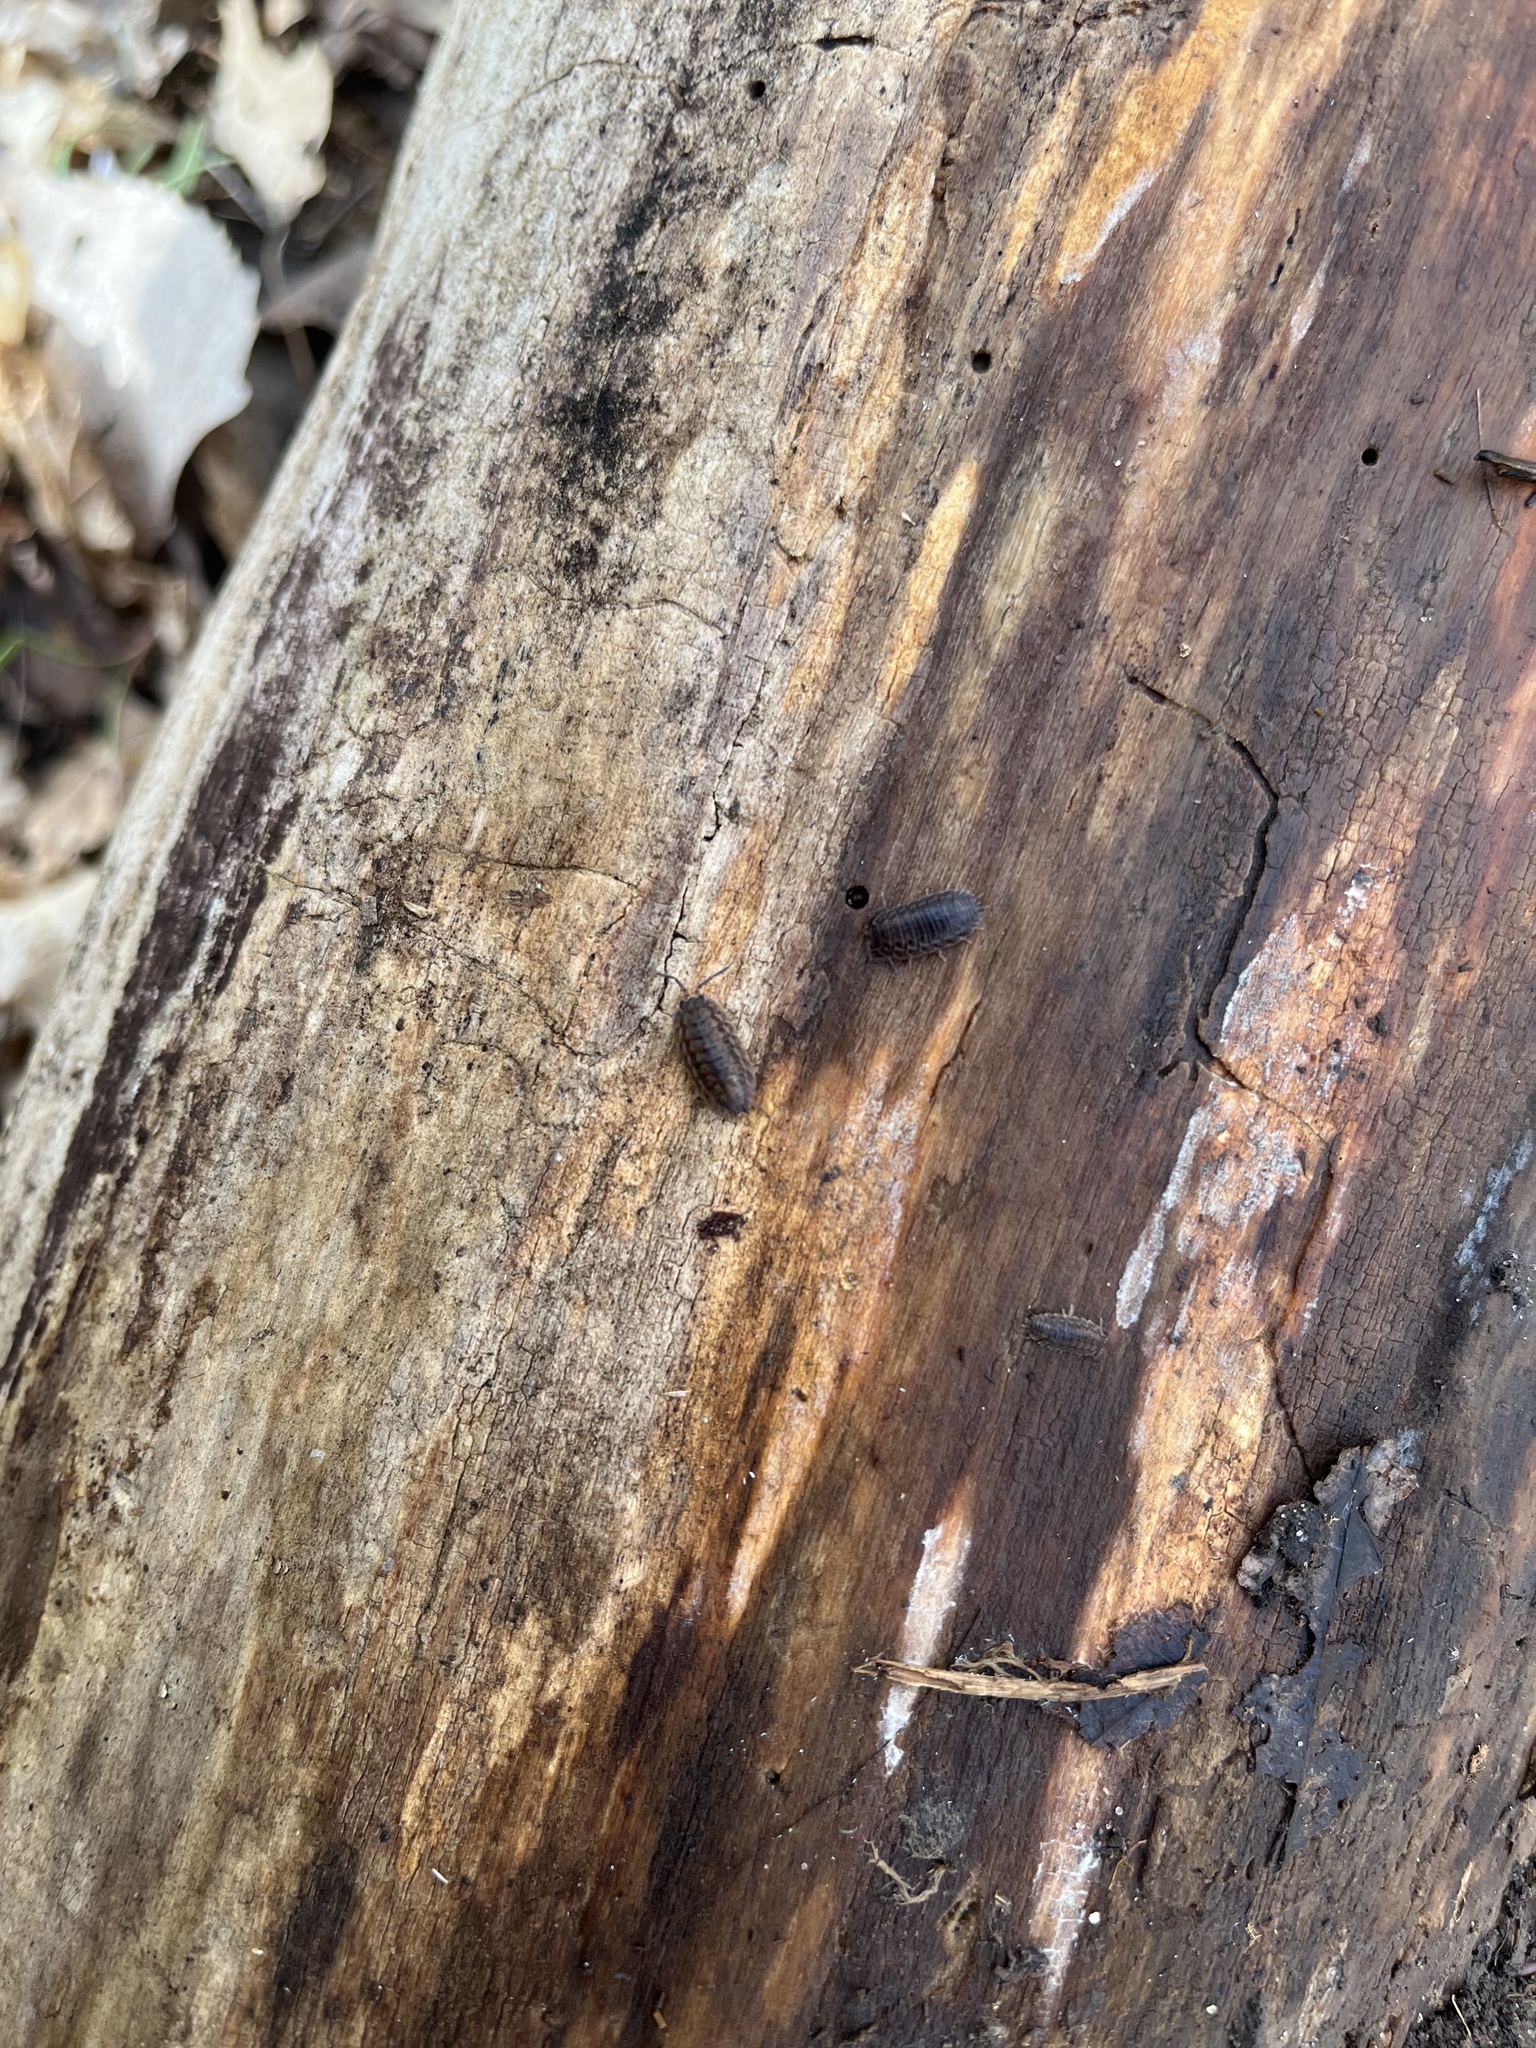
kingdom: Animalia
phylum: Arthropoda
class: Malacostraca
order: Isopoda
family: Trachelipodidae
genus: Trachelipus
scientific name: Trachelipus rathkii
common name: Isopod
